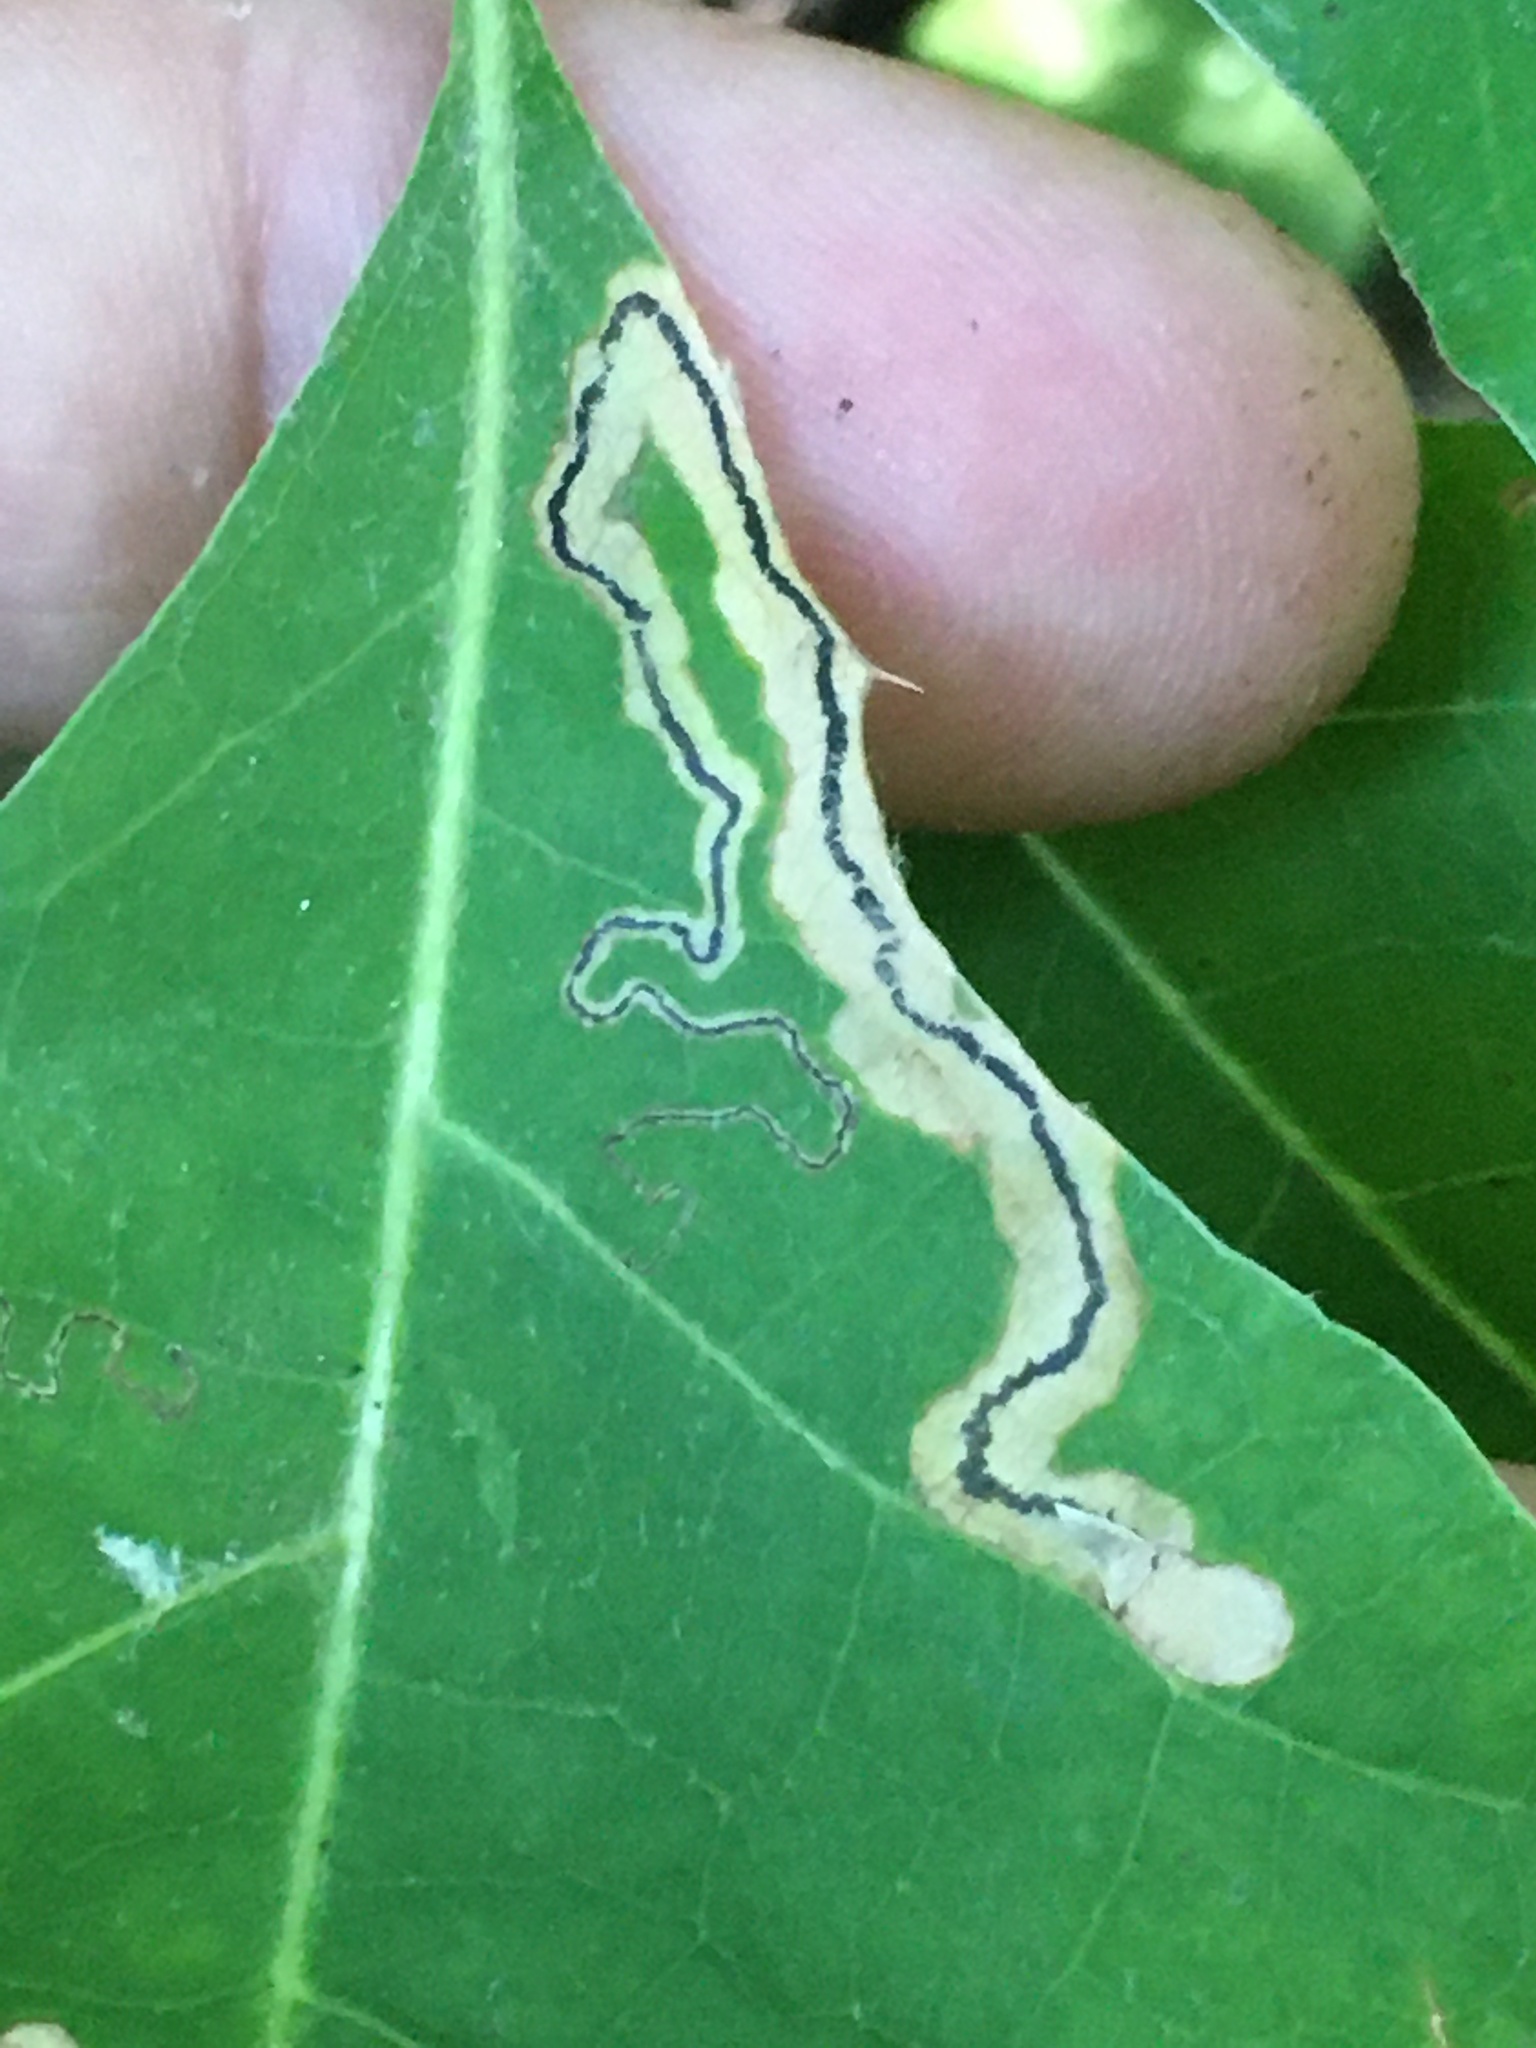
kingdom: Animalia
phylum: Arthropoda
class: Insecta
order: Lepidoptera
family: Nepticulidae
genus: Stigmella
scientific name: Stigmella quercipulchella
